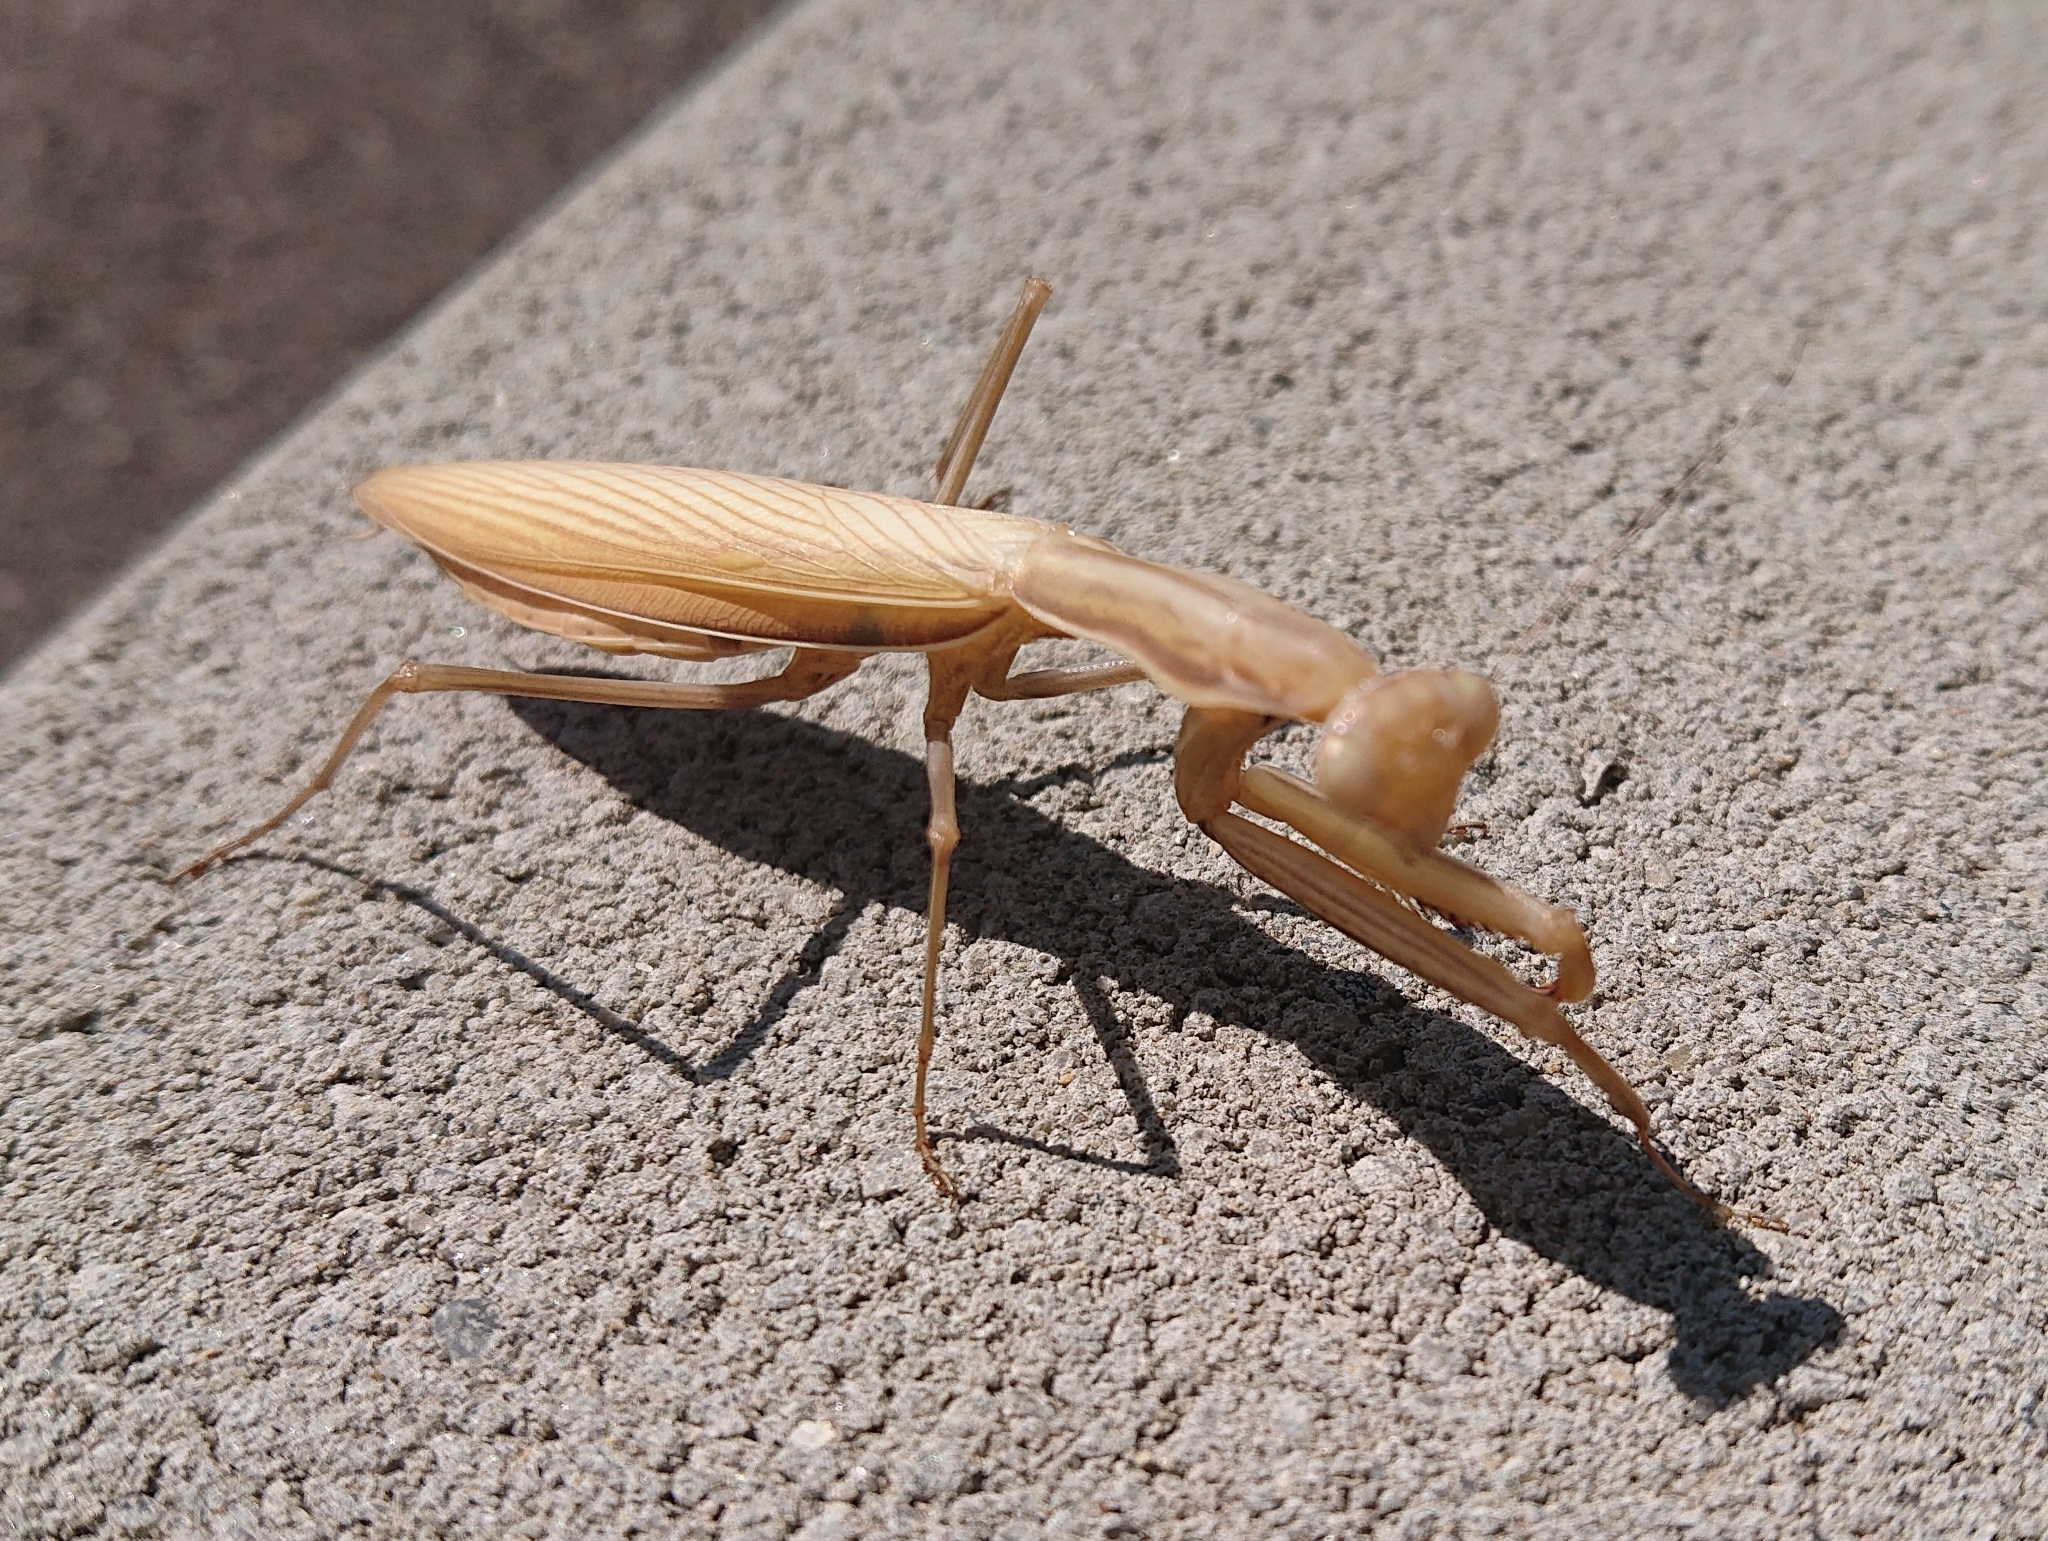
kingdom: Animalia
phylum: Arthropoda
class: Insecta
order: Mantodea
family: Mantidae
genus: Mantis
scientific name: Mantis religiosa
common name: Praying mantis
